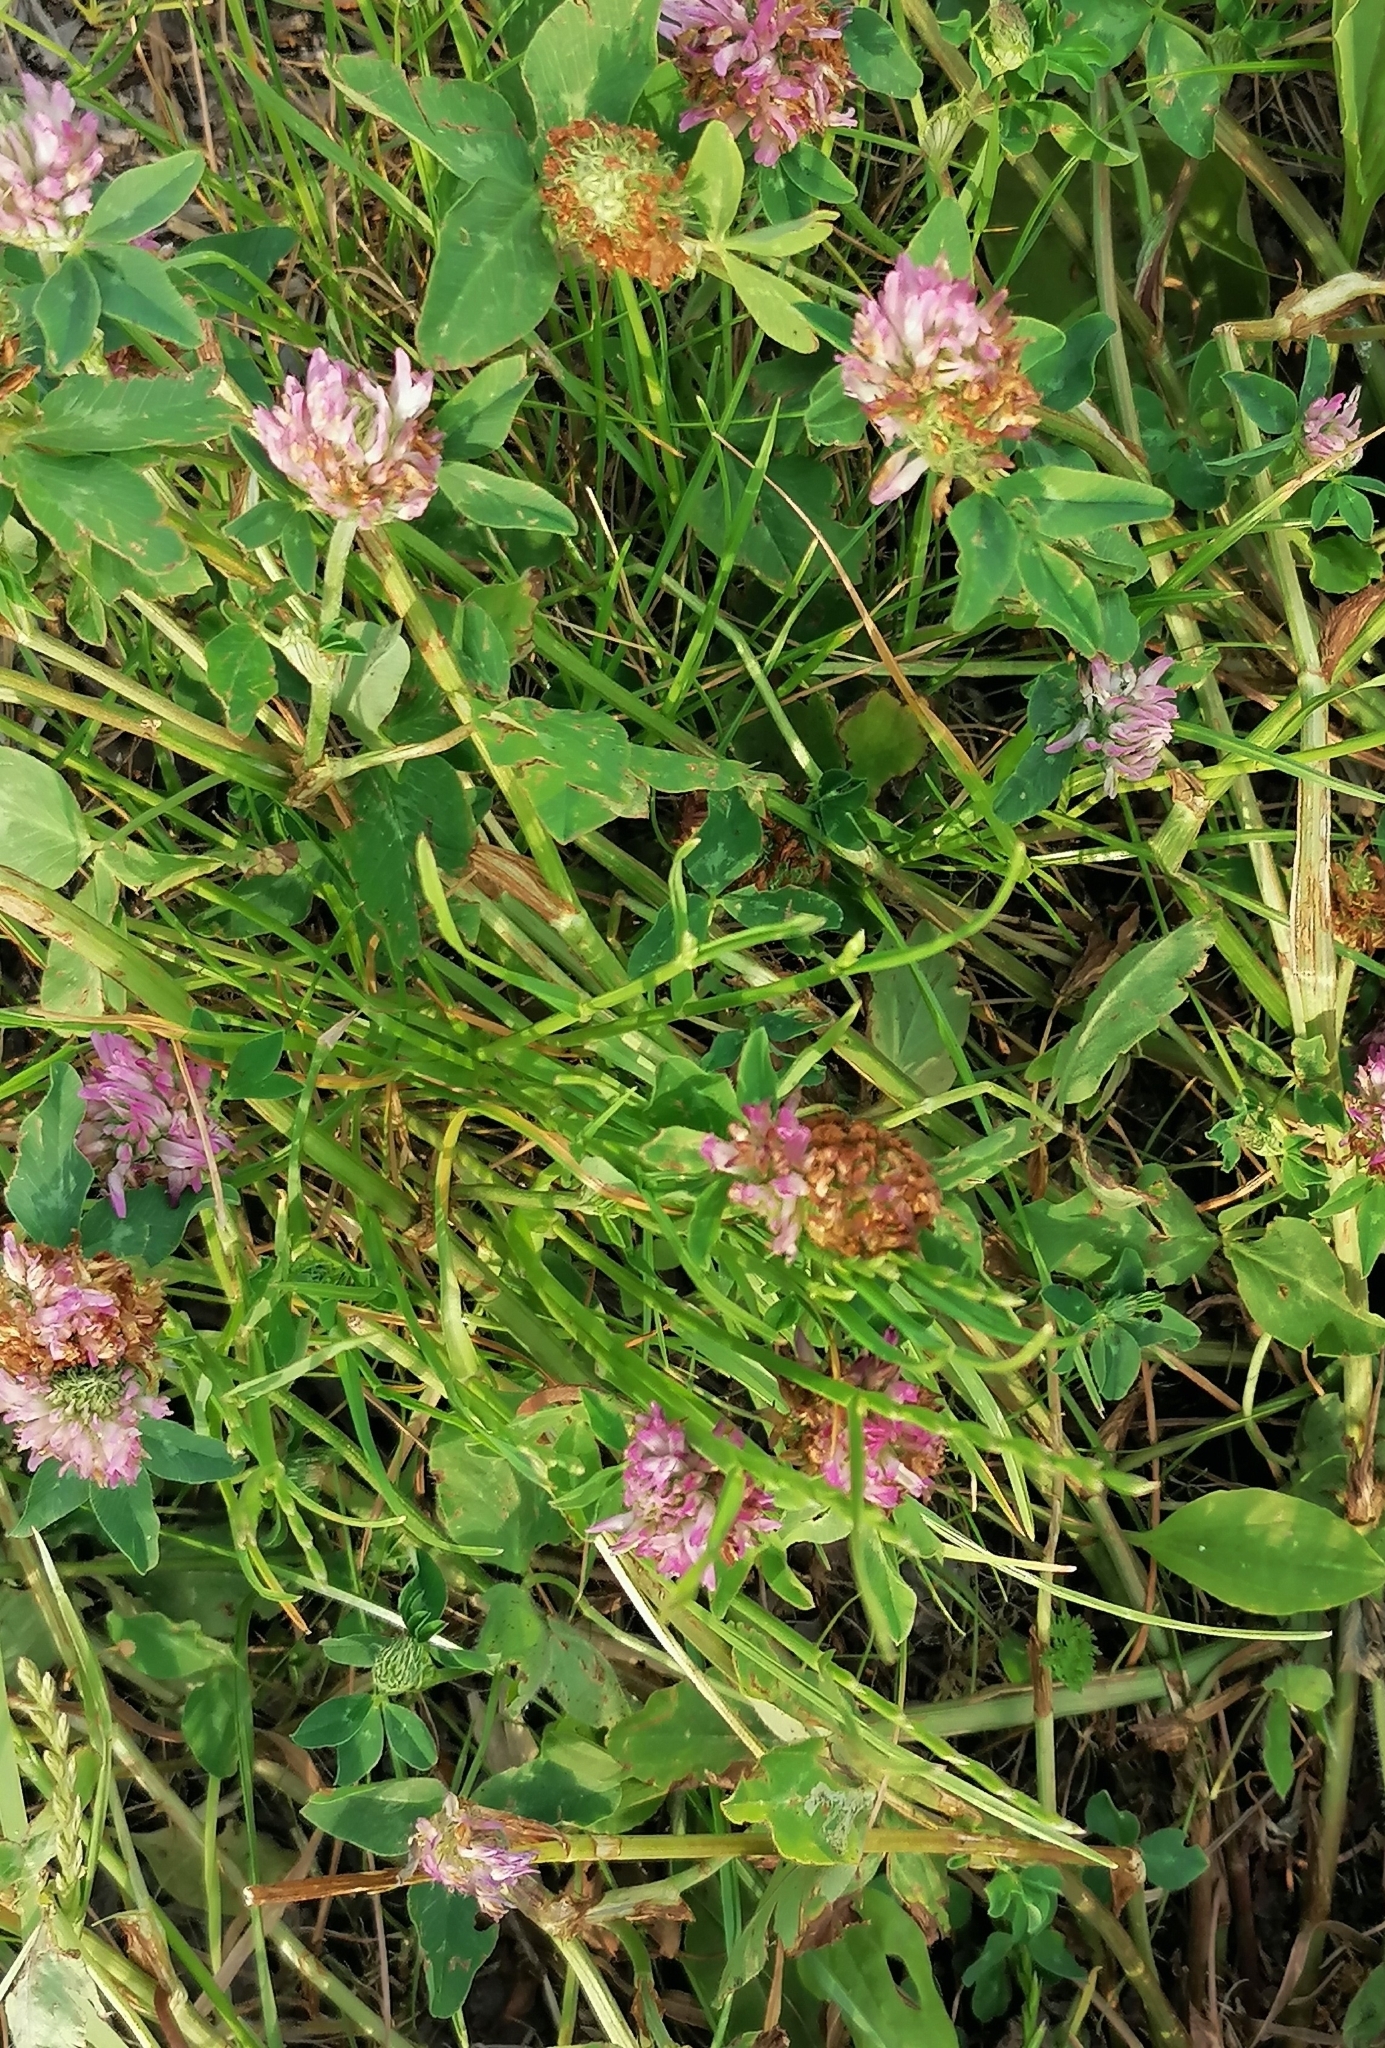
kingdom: Plantae
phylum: Tracheophyta
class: Magnoliopsida
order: Fabales
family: Fabaceae
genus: Trifolium
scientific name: Trifolium pratense
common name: Red clover
